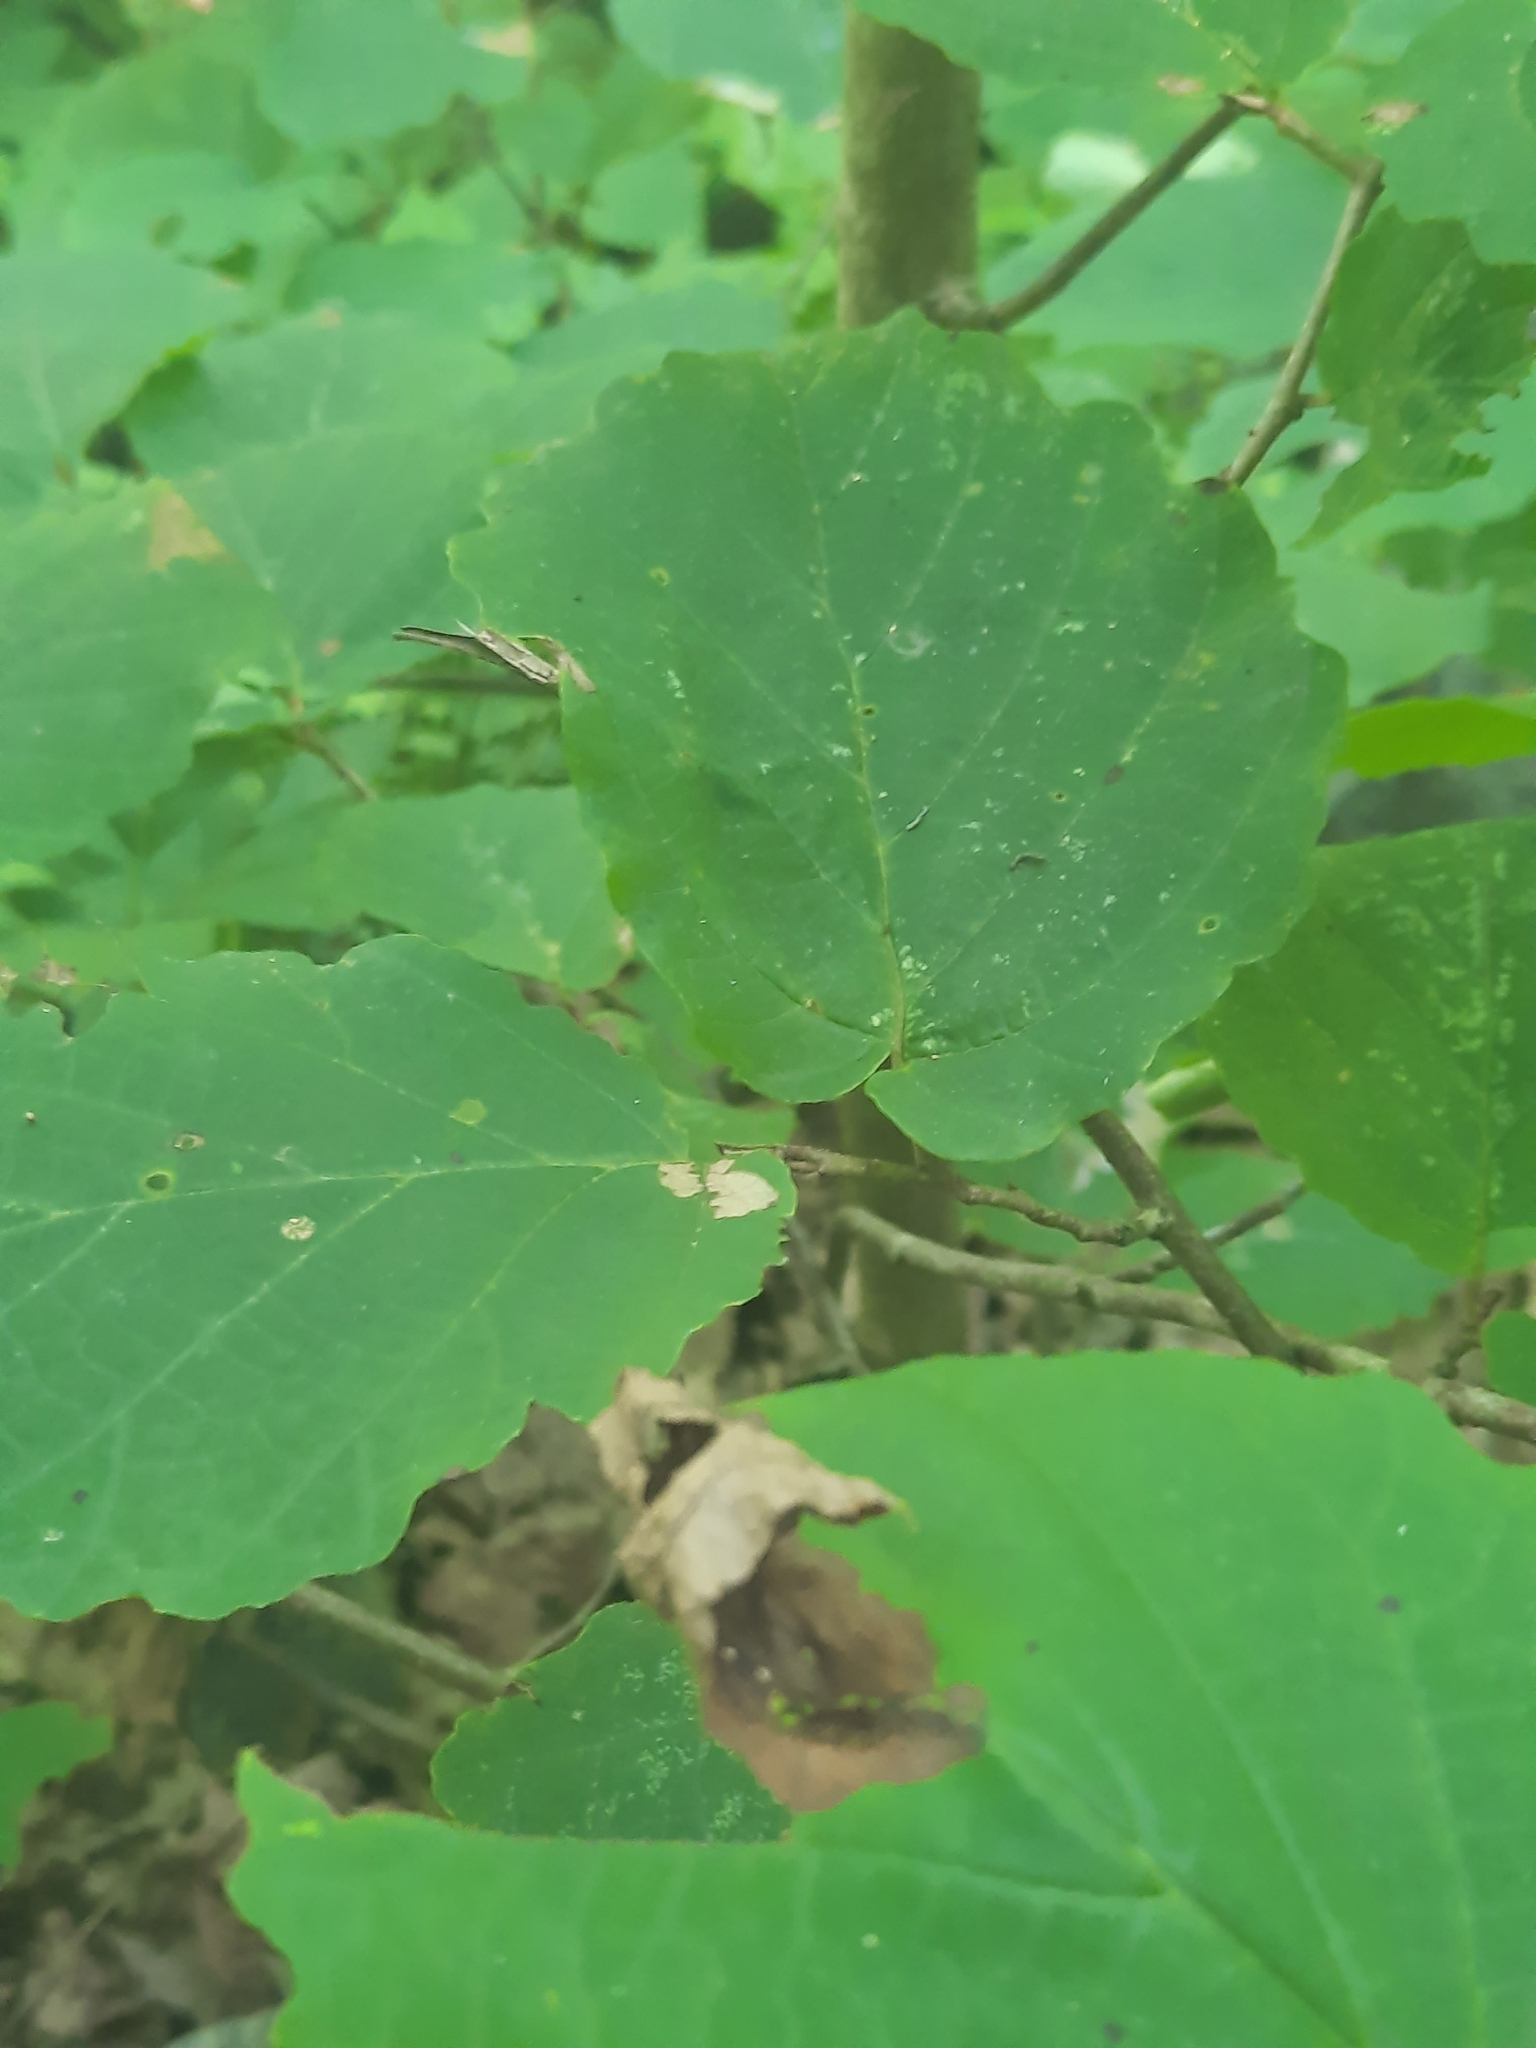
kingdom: Plantae
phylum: Tracheophyta
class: Magnoliopsida
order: Saxifragales
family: Hamamelidaceae
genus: Hamamelis
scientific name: Hamamelis virginiana
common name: Witch-hazel
